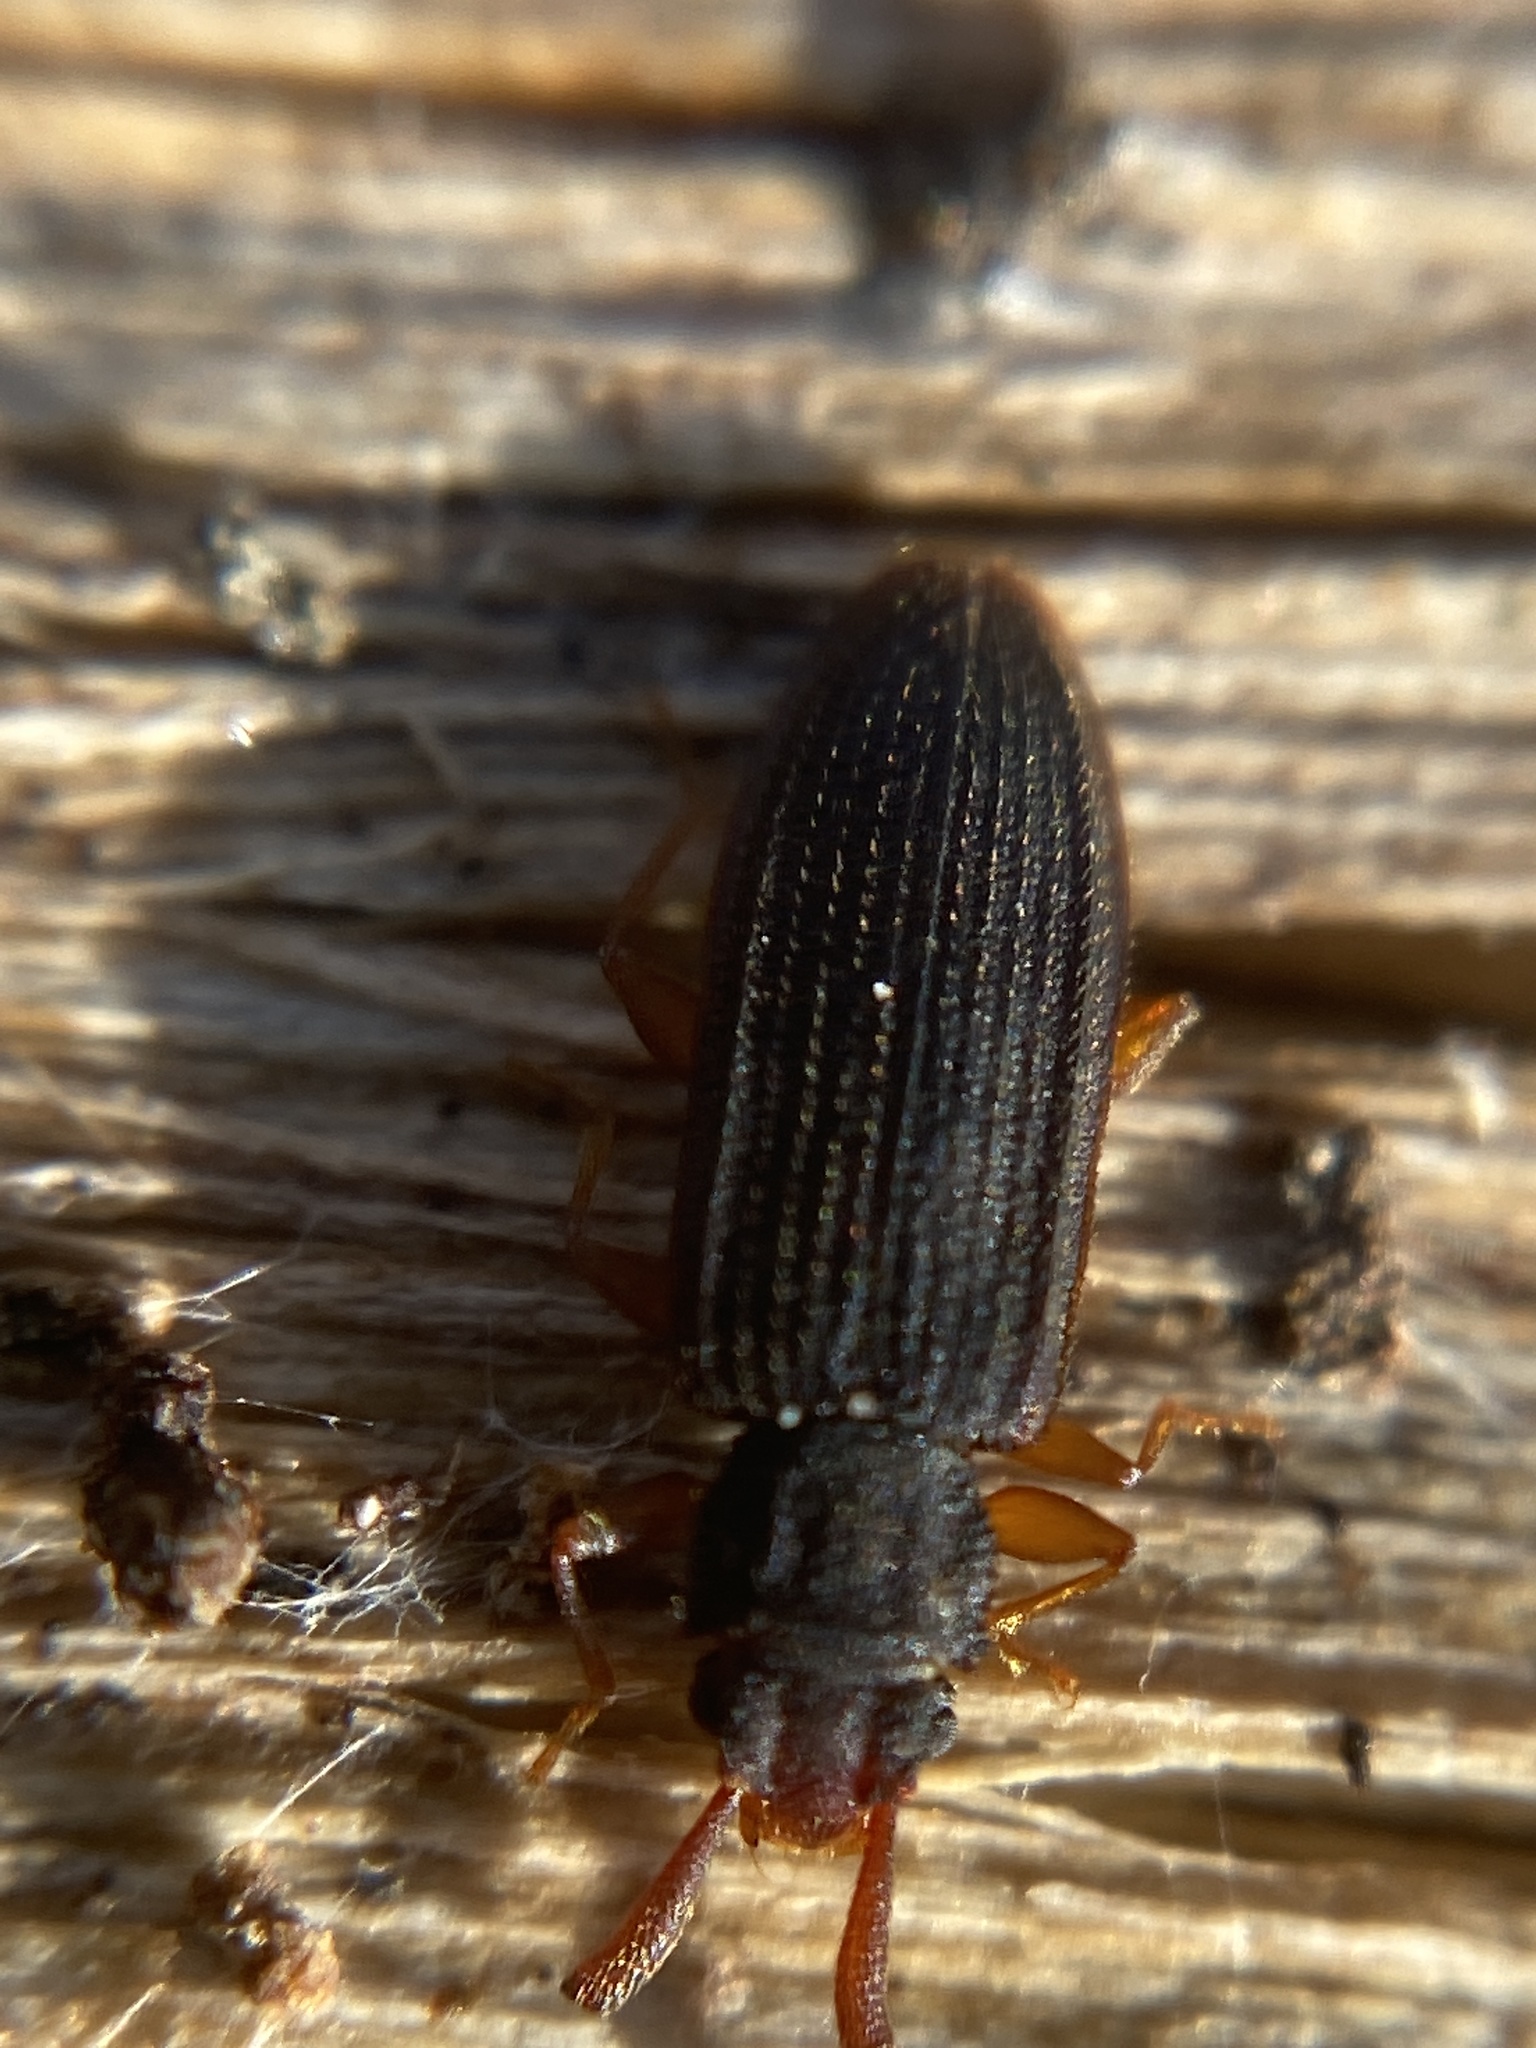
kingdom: Animalia
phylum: Arthropoda
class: Insecta
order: Coleoptera
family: Silvanidae
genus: Uleiota
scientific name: Uleiota planatus
